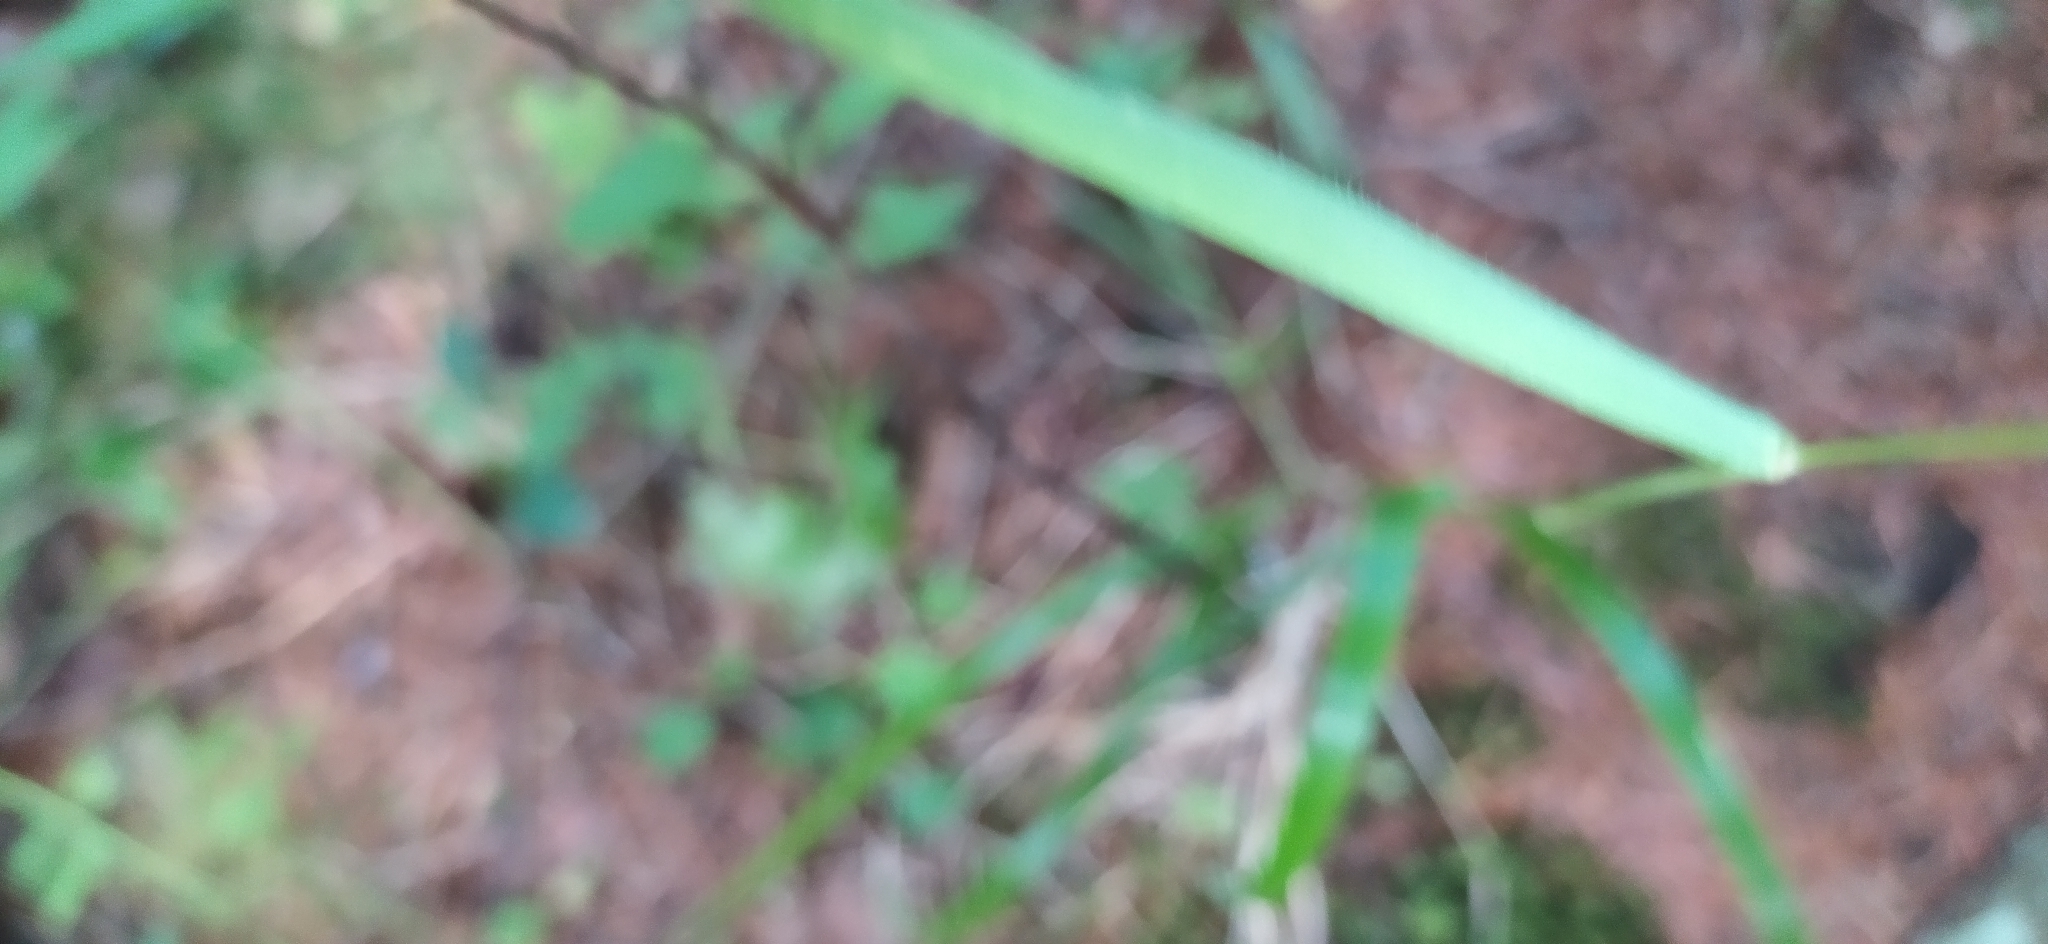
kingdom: Plantae
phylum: Tracheophyta
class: Liliopsida
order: Poales
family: Poaceae
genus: Poa
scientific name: Poa pratensis
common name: Kentucky bluegrass
